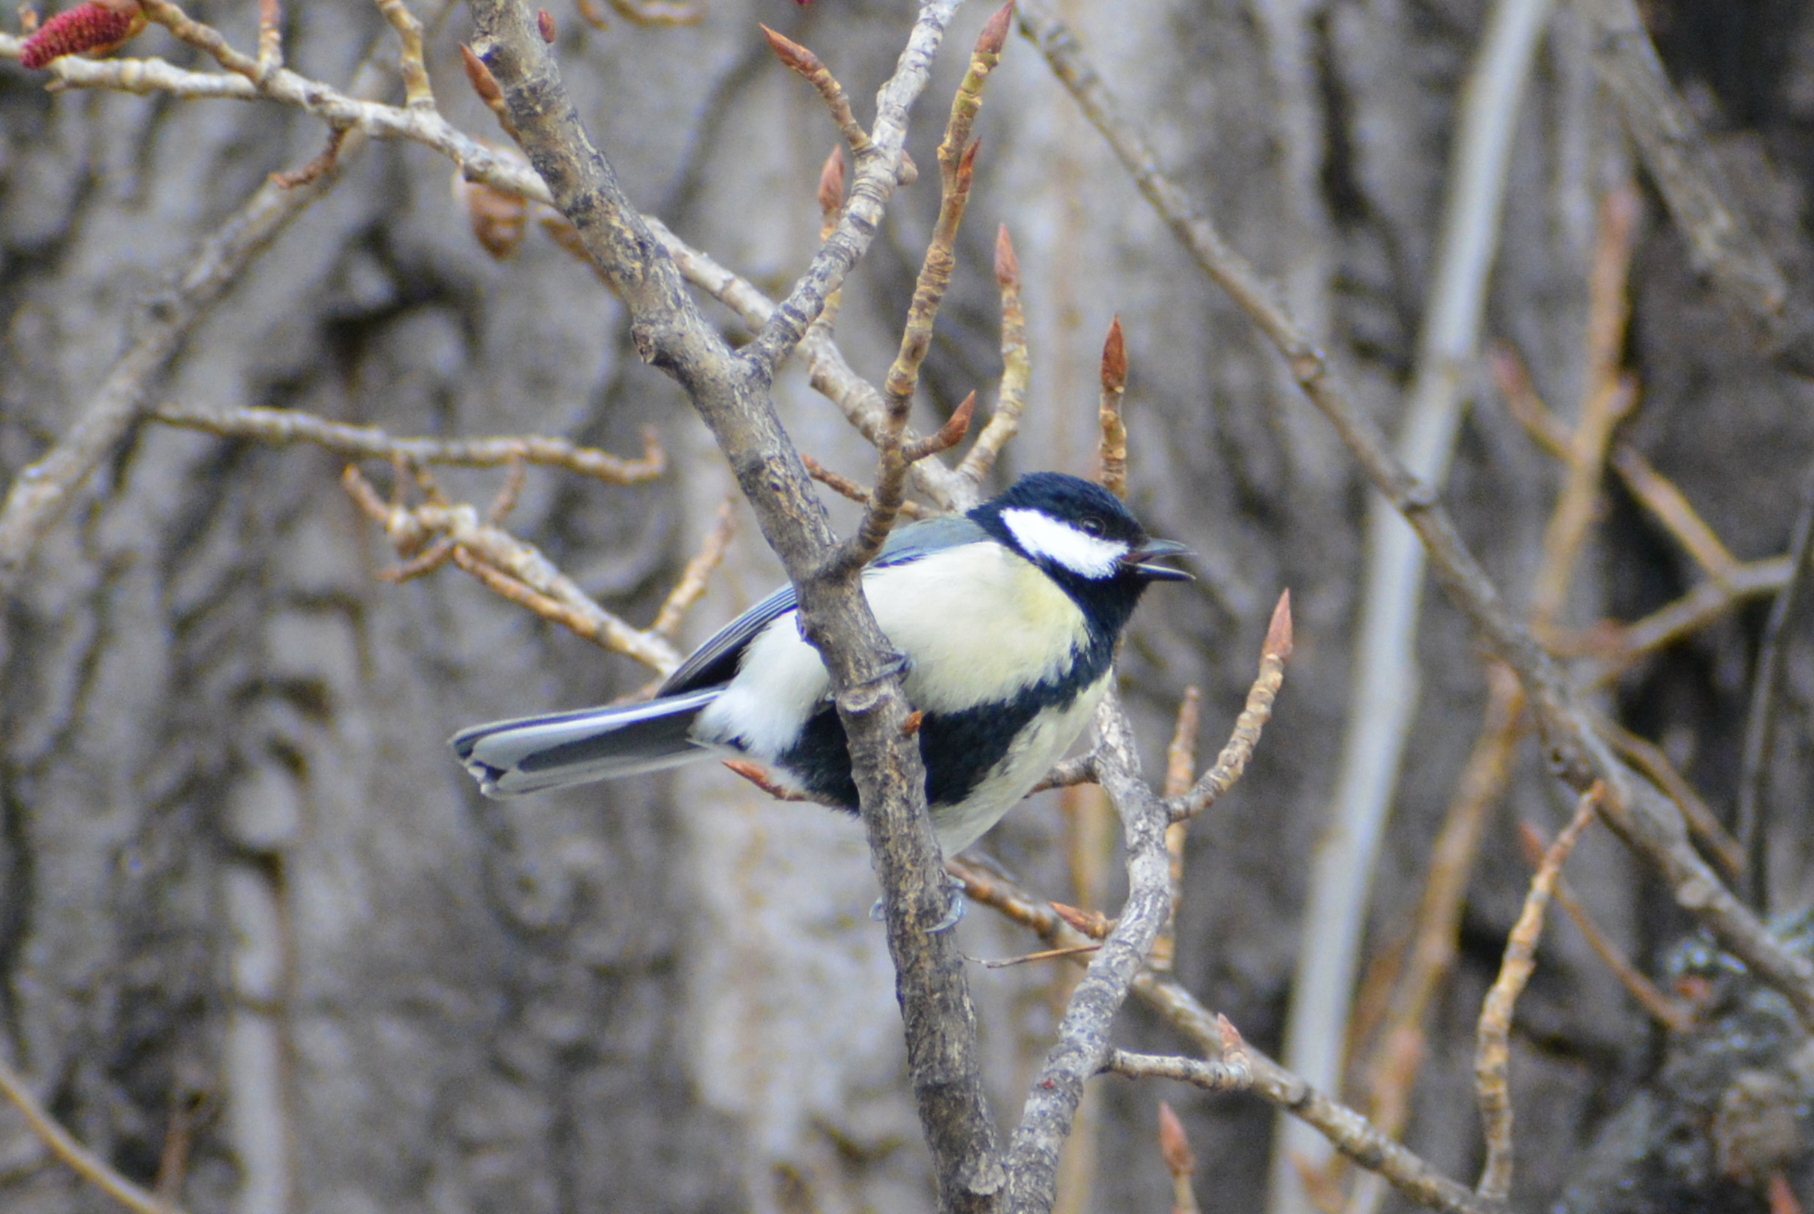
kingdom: Animalia
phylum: Chordata
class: Aves
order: Passeriformes
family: Paridae
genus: Parus
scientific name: Parus major
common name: Great tit
